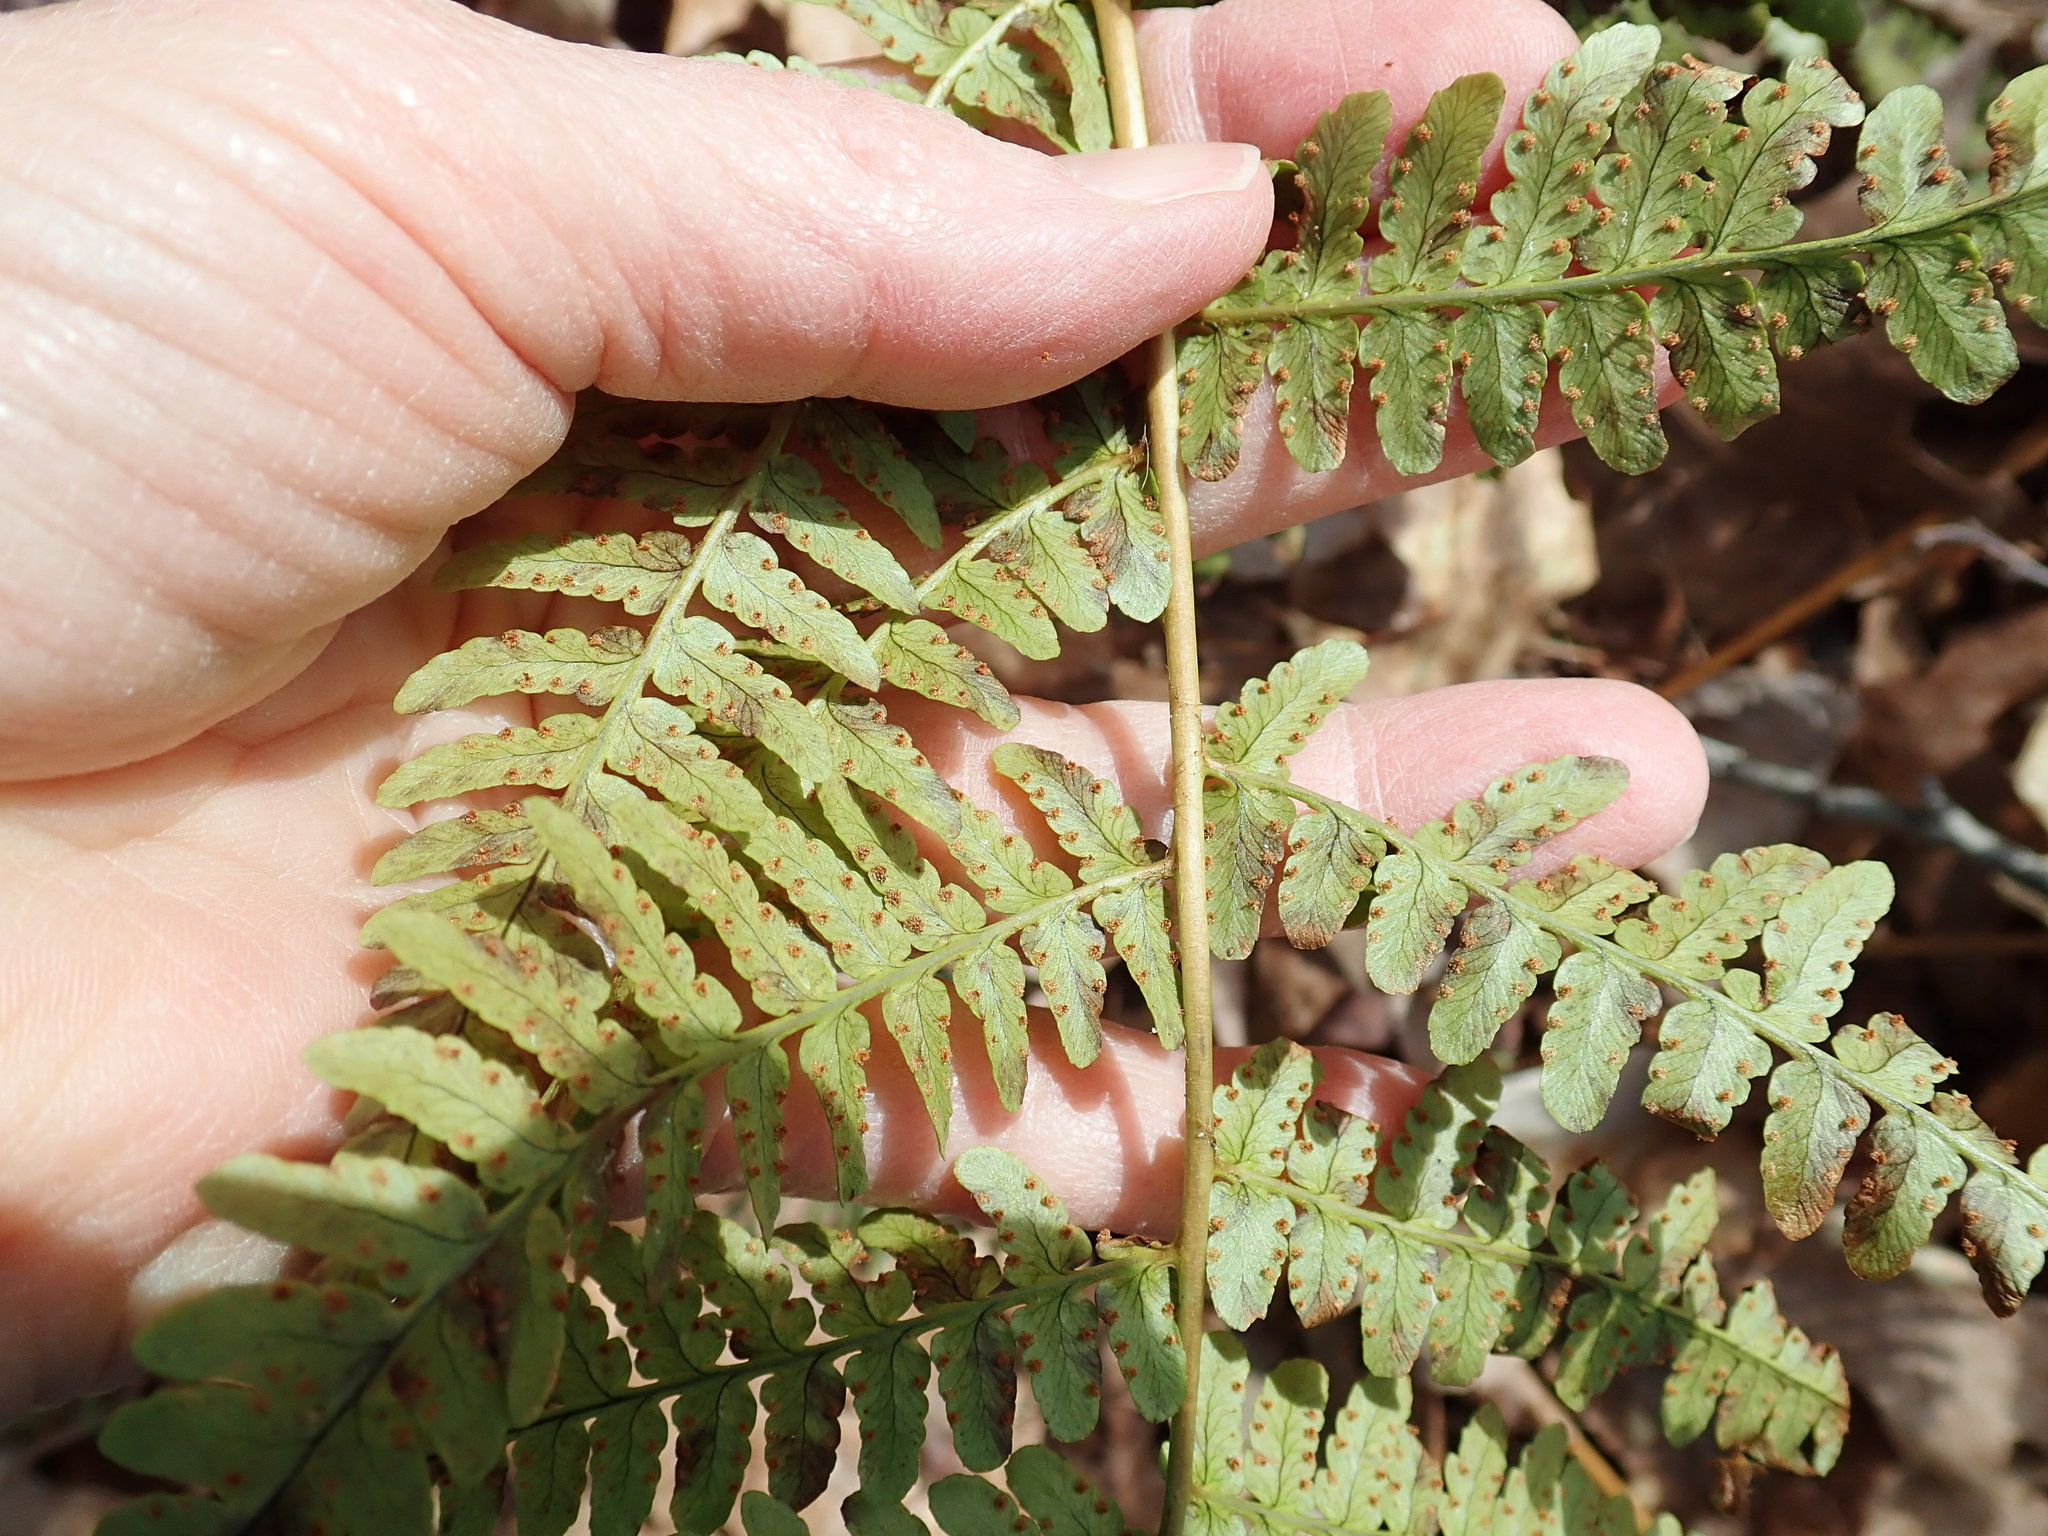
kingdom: Plantae
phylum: Tracheophyta
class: Polypodiopsida
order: Polypodiales
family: Dryopteridaceae
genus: Dryopteris
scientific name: Dryopteris marginalis
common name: Marginal wood fern
